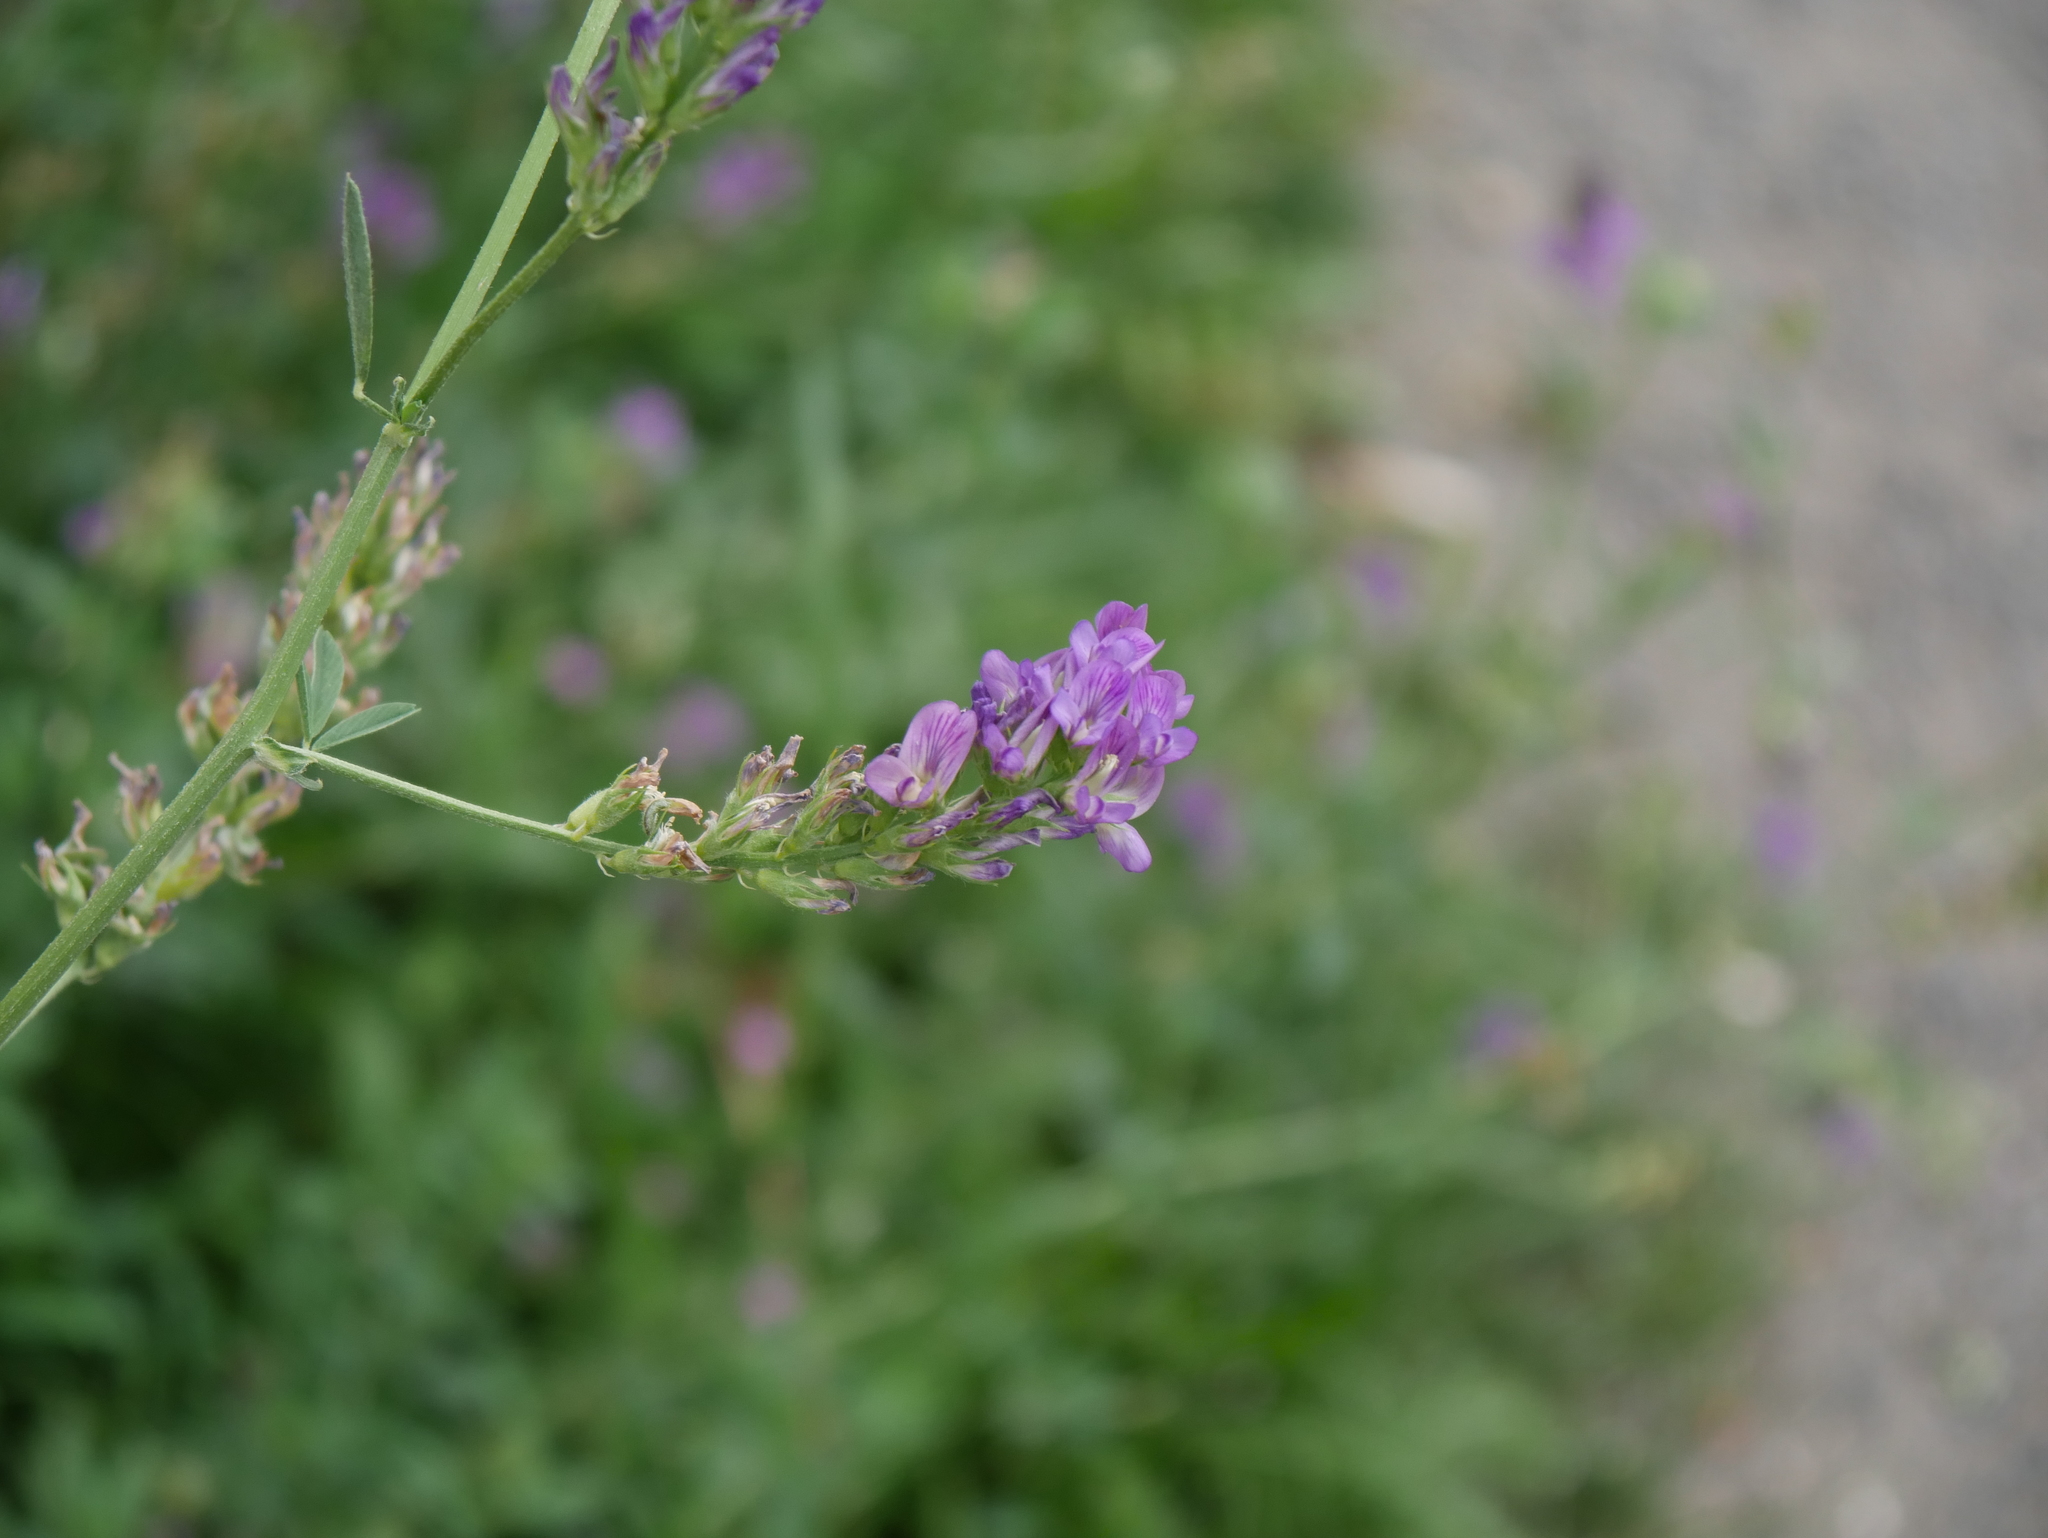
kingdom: Plantae
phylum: Tracheophyta
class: Magnoliopsida
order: Fabales
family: Fabaceae
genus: Medicago
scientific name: Medicago sativa
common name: Alfalfa
